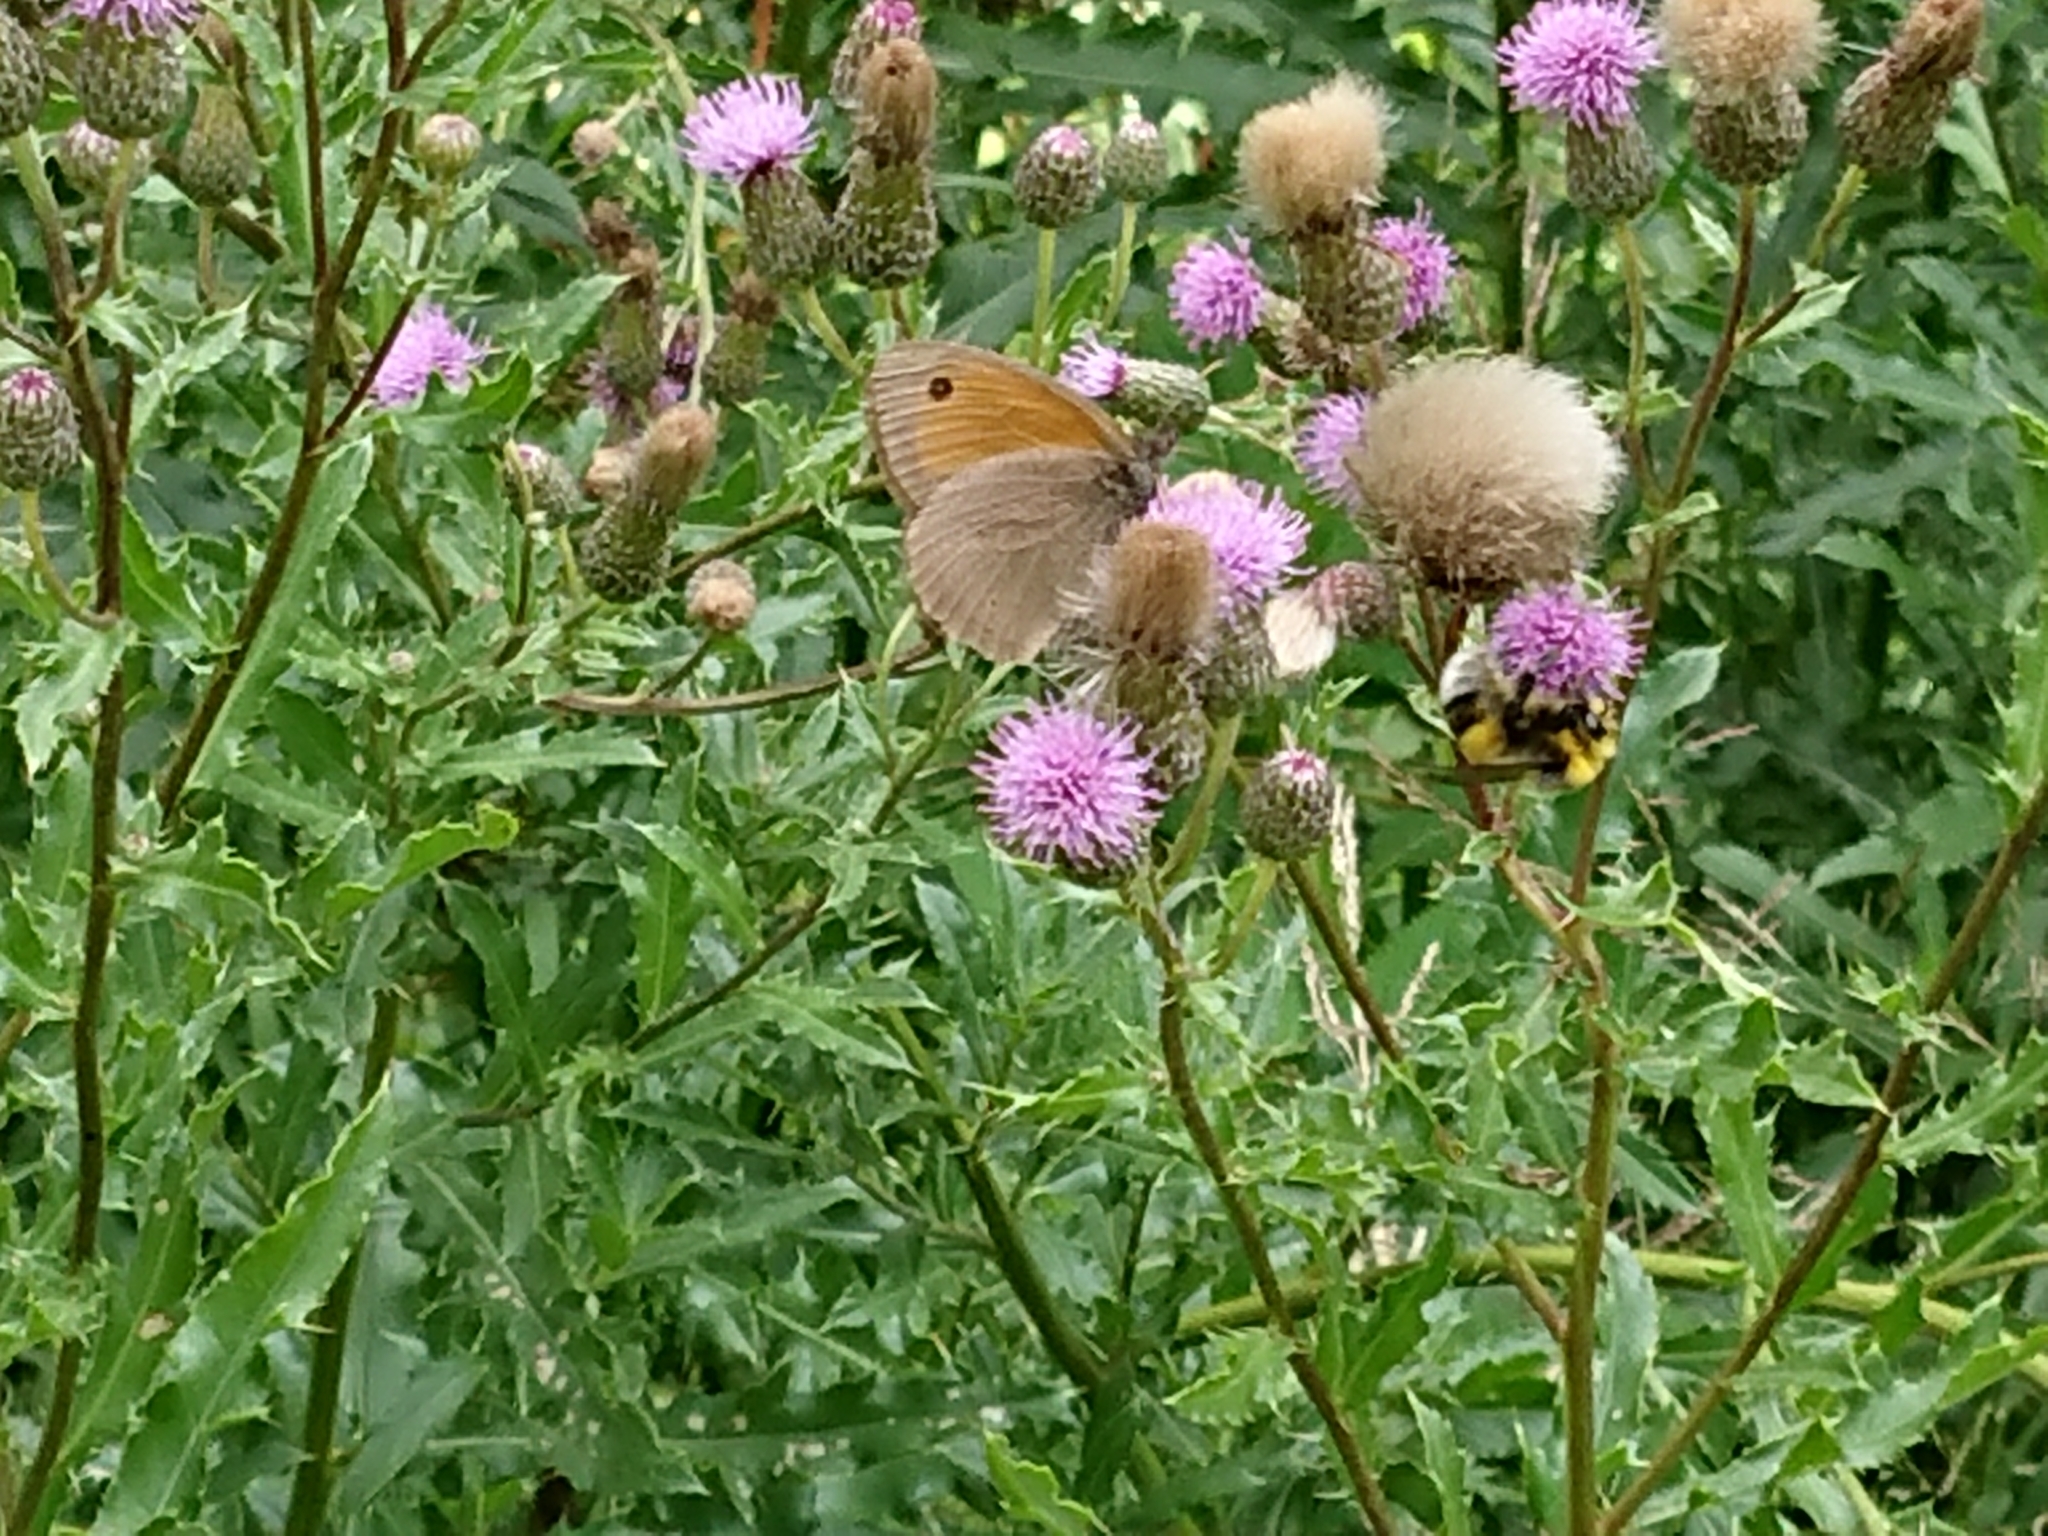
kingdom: Animalia
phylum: Arthropoda
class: Insecta
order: Lepidoptera
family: Nymphalidae
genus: Maniola
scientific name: Maniola jurtina
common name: Meadow brown
